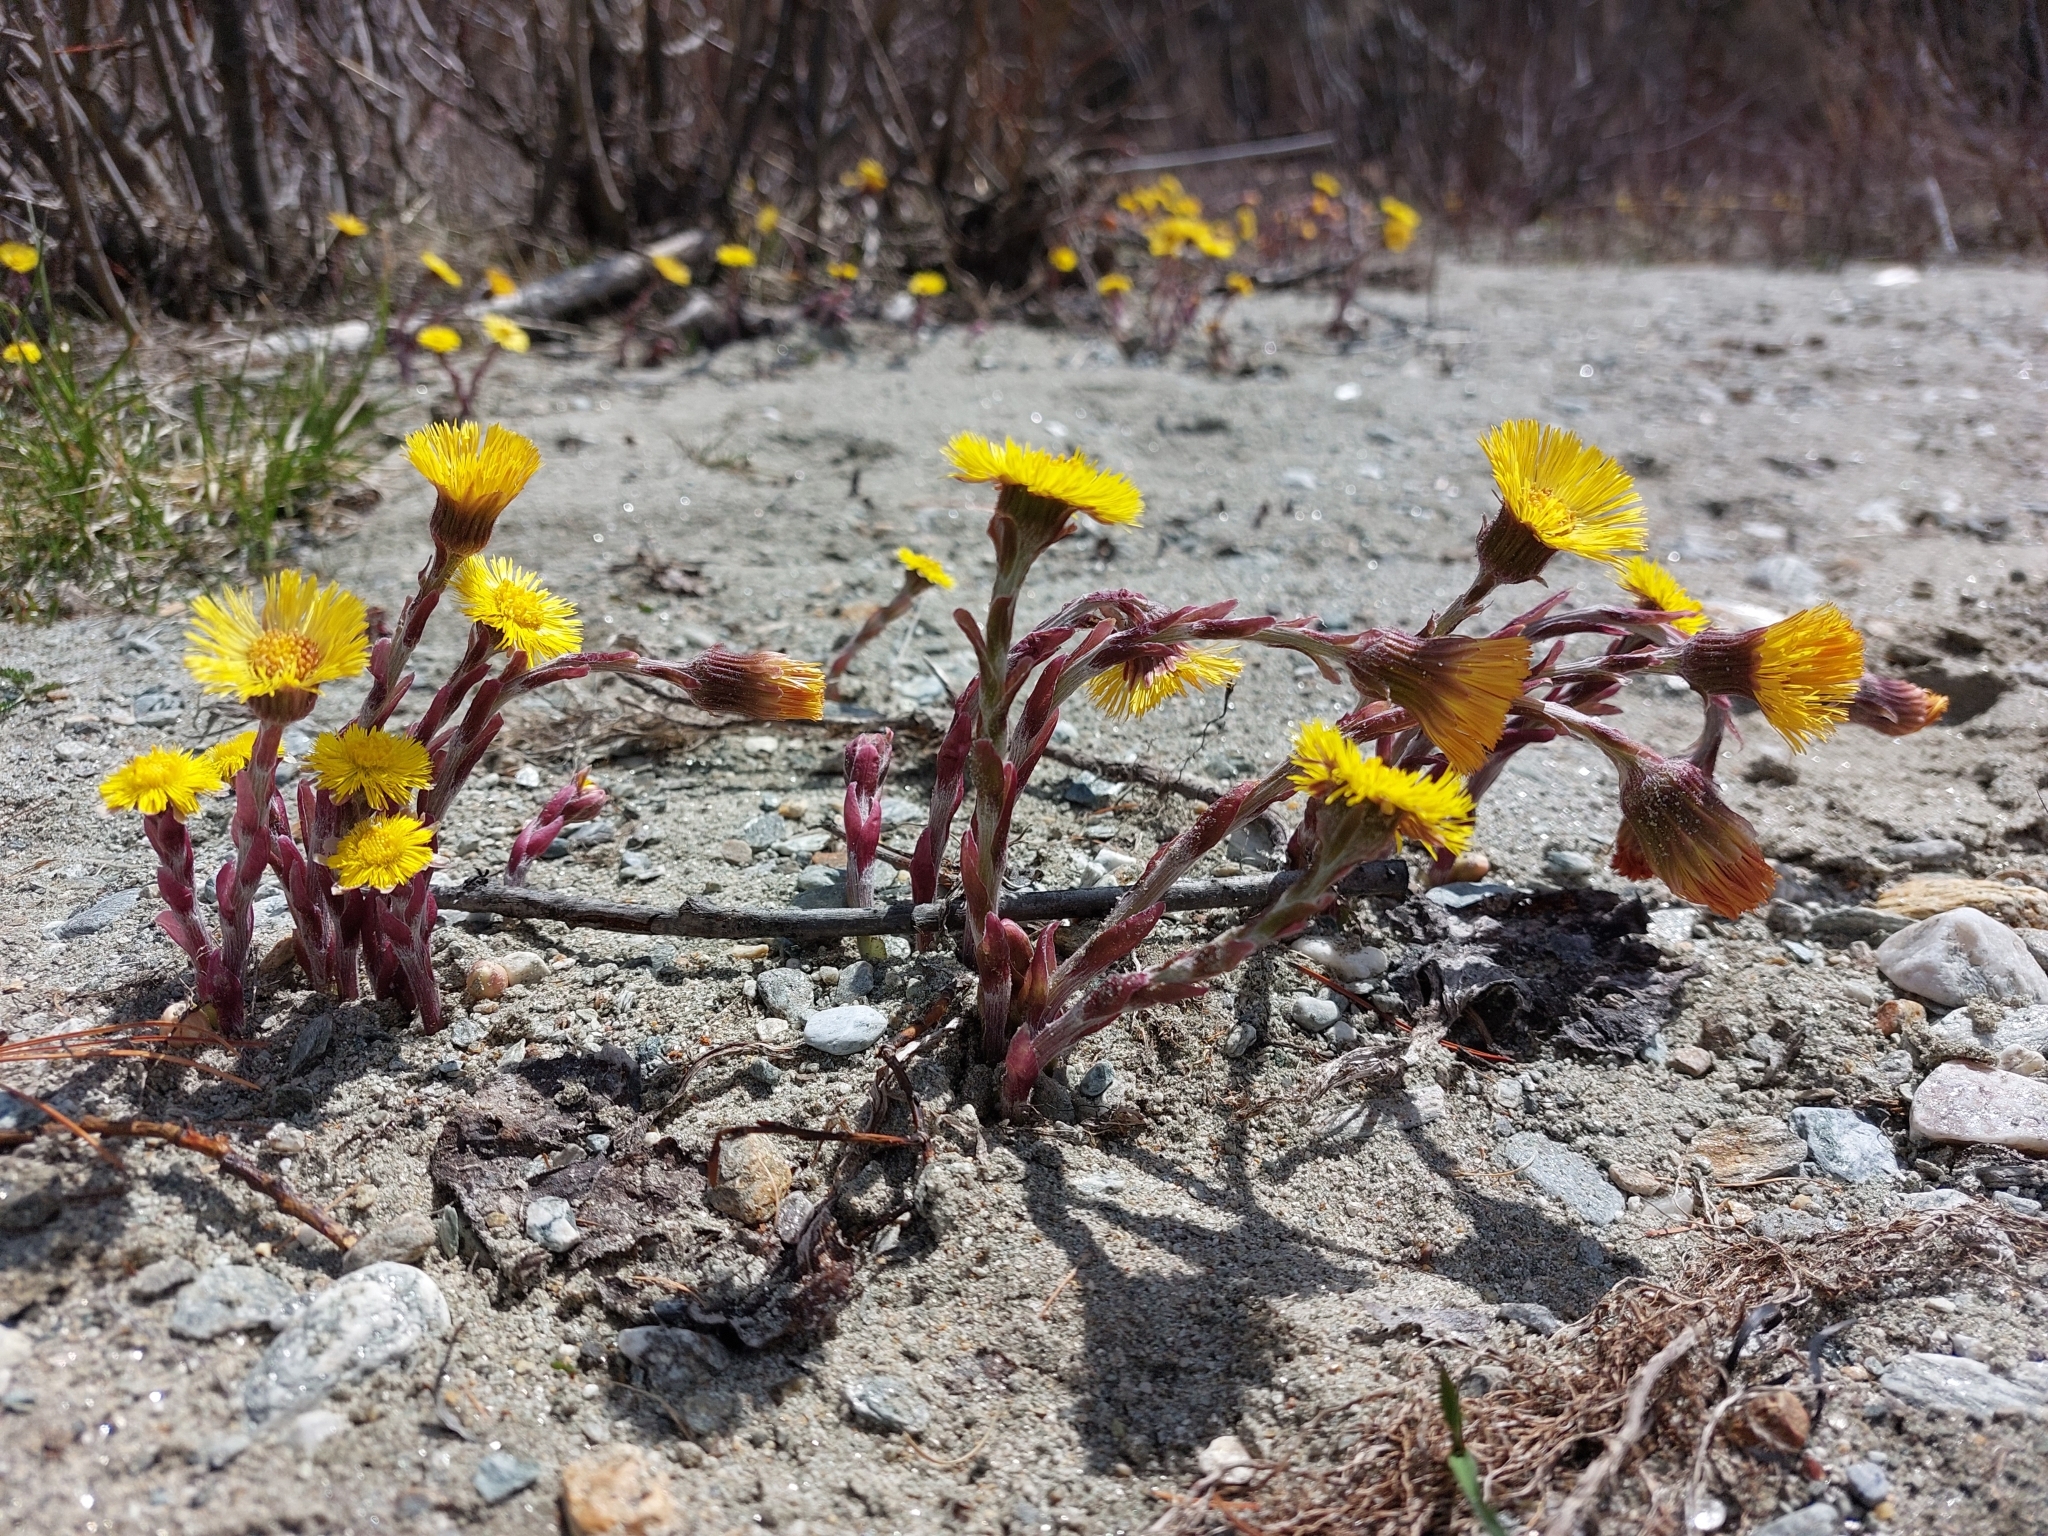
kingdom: Plantae
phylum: Tracheophyta
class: Magnoliopsida
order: Asterales
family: Asteraceae
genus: Tussilago
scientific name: Tussilago farfara
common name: Coltsfoot
